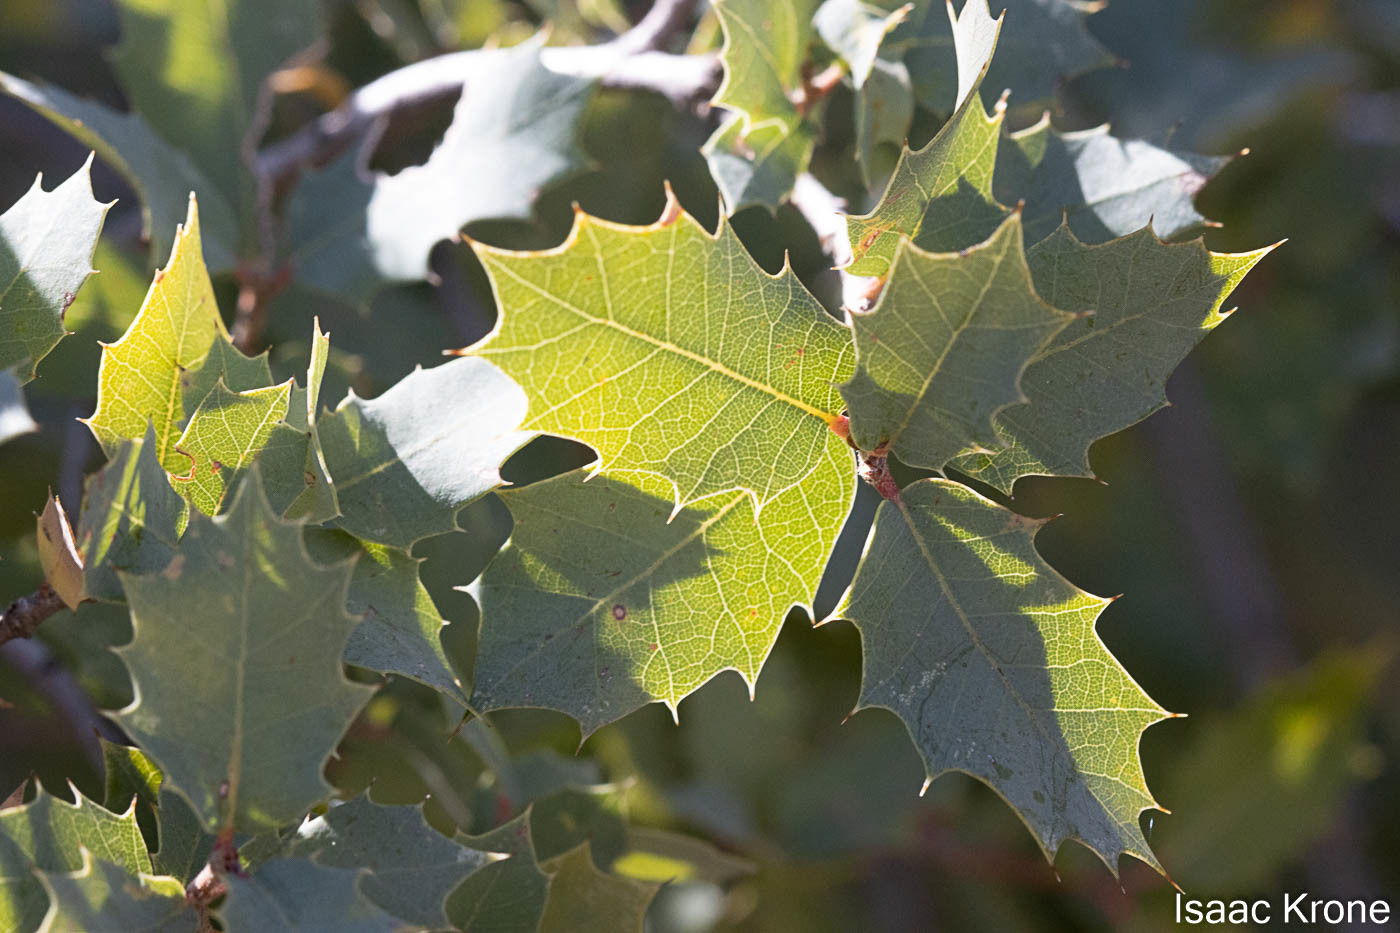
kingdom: Plantae
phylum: Tracheophyta
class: Magnoliopsida
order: Fagales
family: Fagaceae
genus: Quercus
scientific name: Quercus ajoensis
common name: Ajo mountain scrub oak
